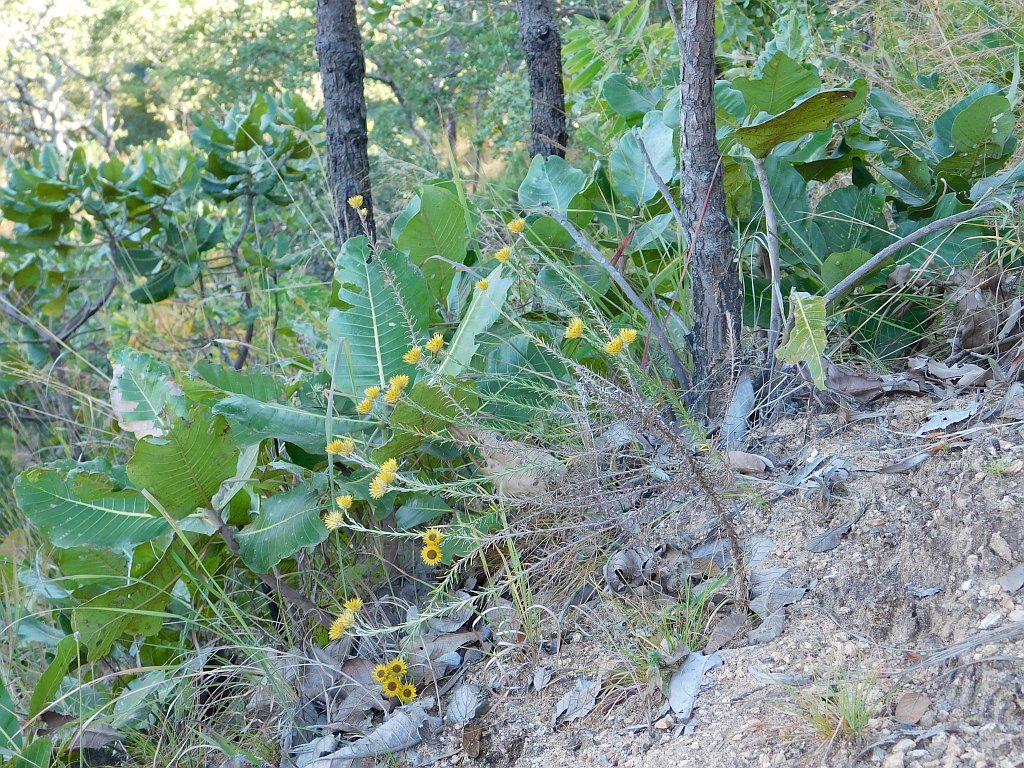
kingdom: Plantae
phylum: Tracheophyta
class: Magnoliopsida
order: Asterales
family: Asteraceae
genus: Helichrysum
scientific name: Helichrysum kirkii
